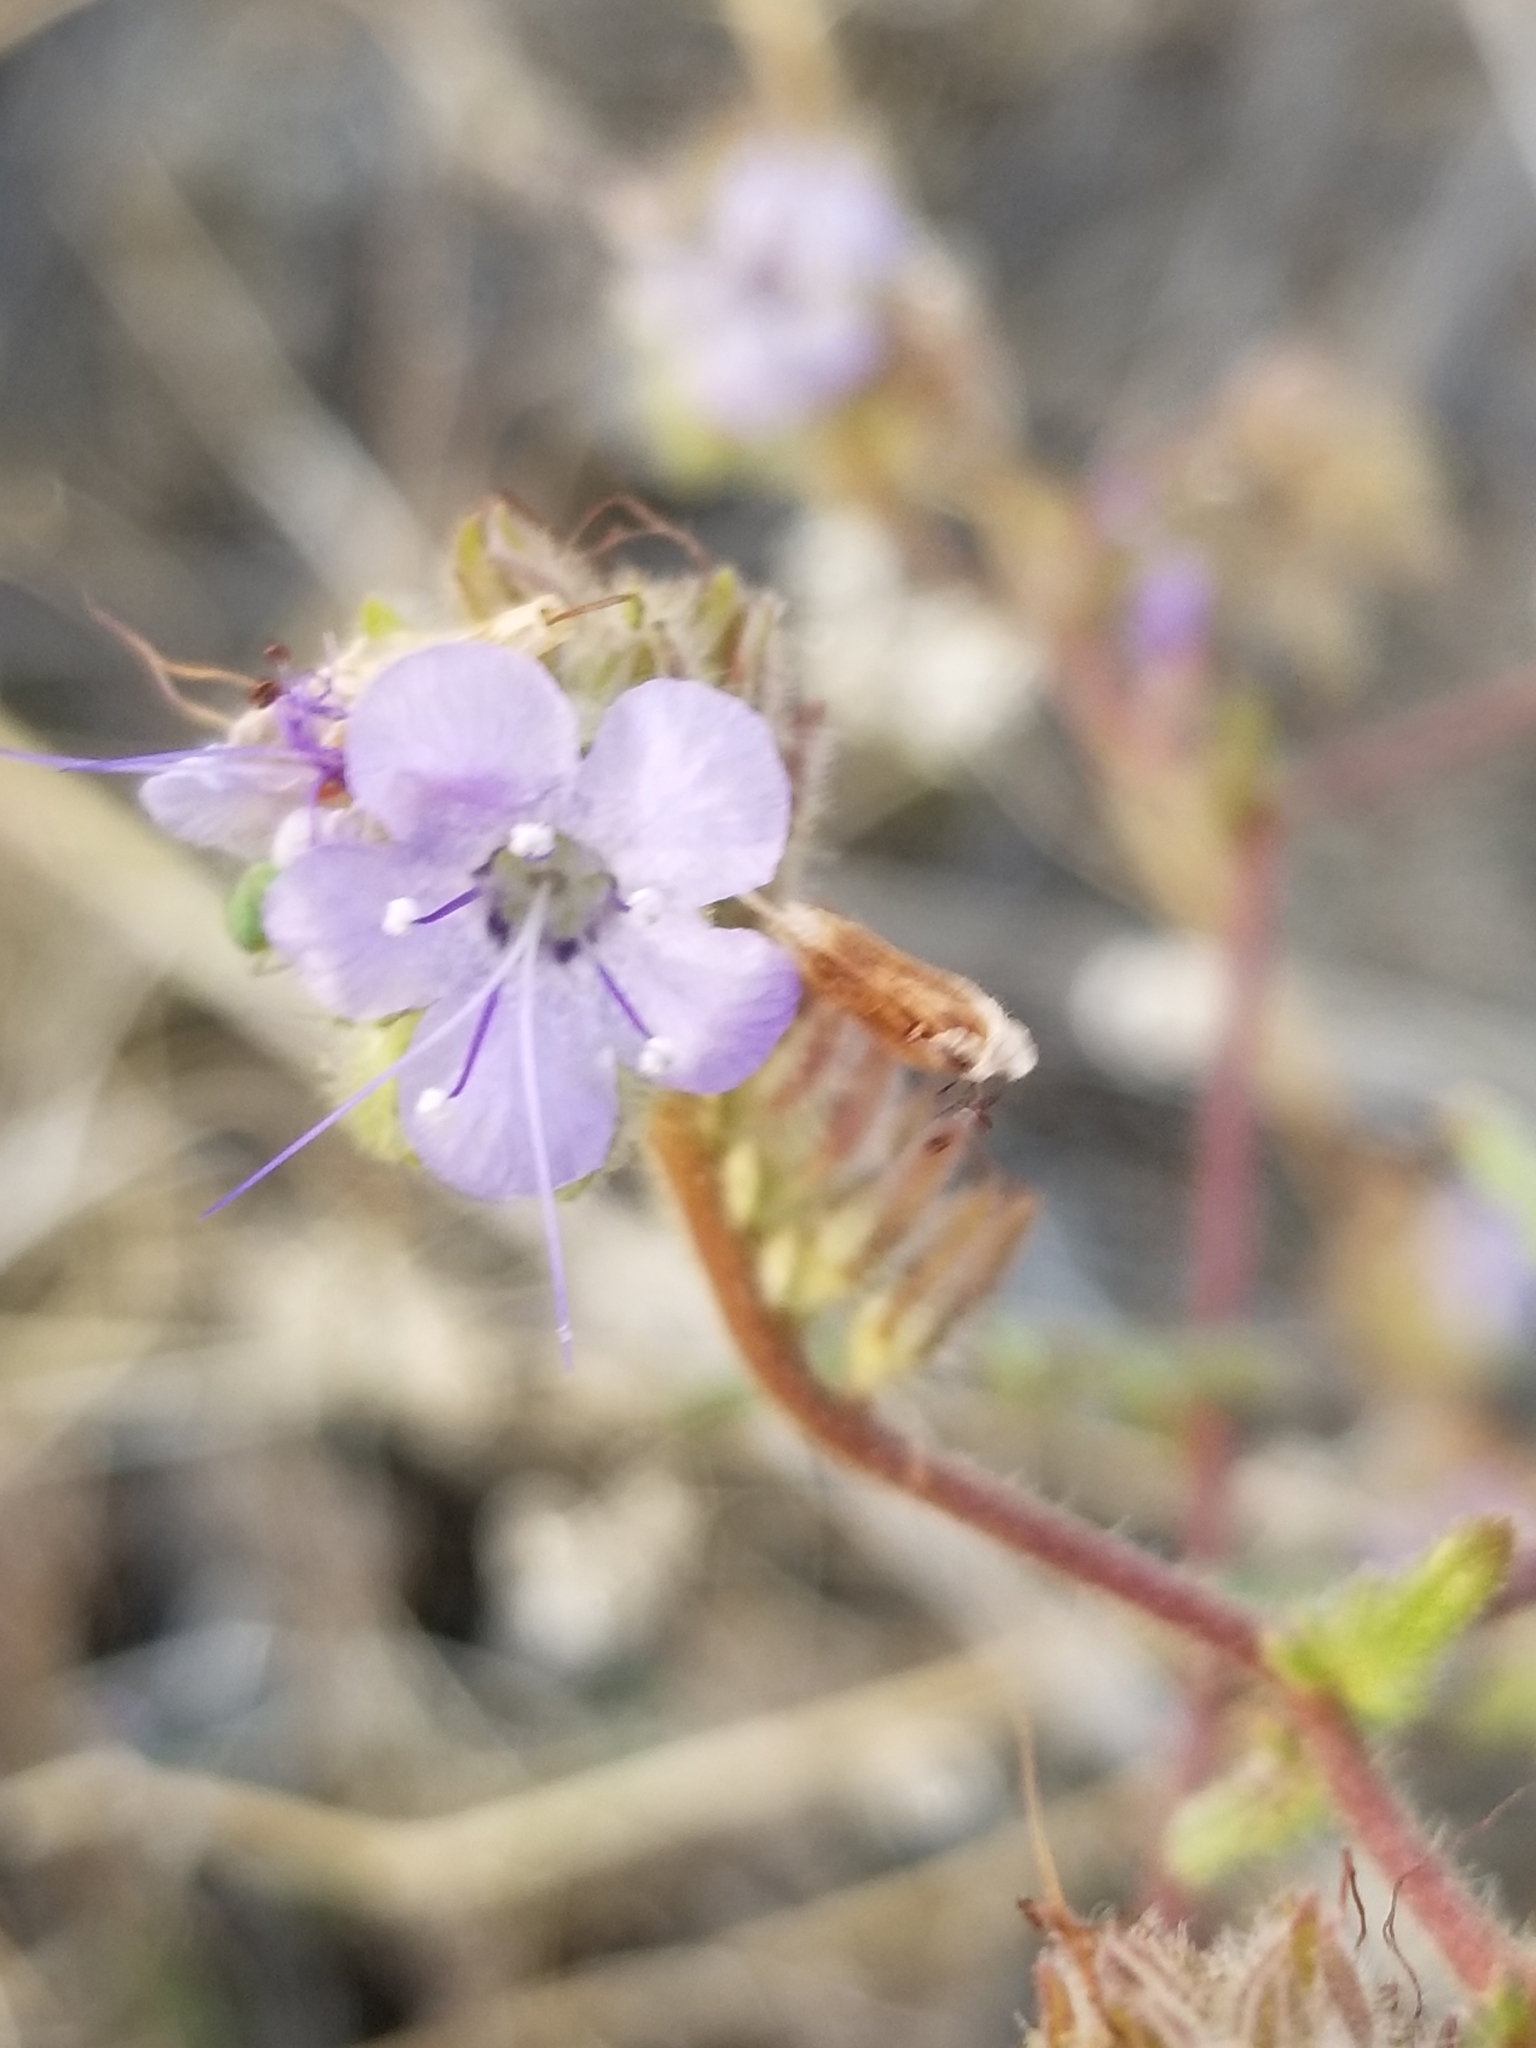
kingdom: Plantae
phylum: Tracheophyta
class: Magnoliopsida
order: Boraginales
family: Hydrophyllaceae
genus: Phacelia
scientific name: Phacelia distans
